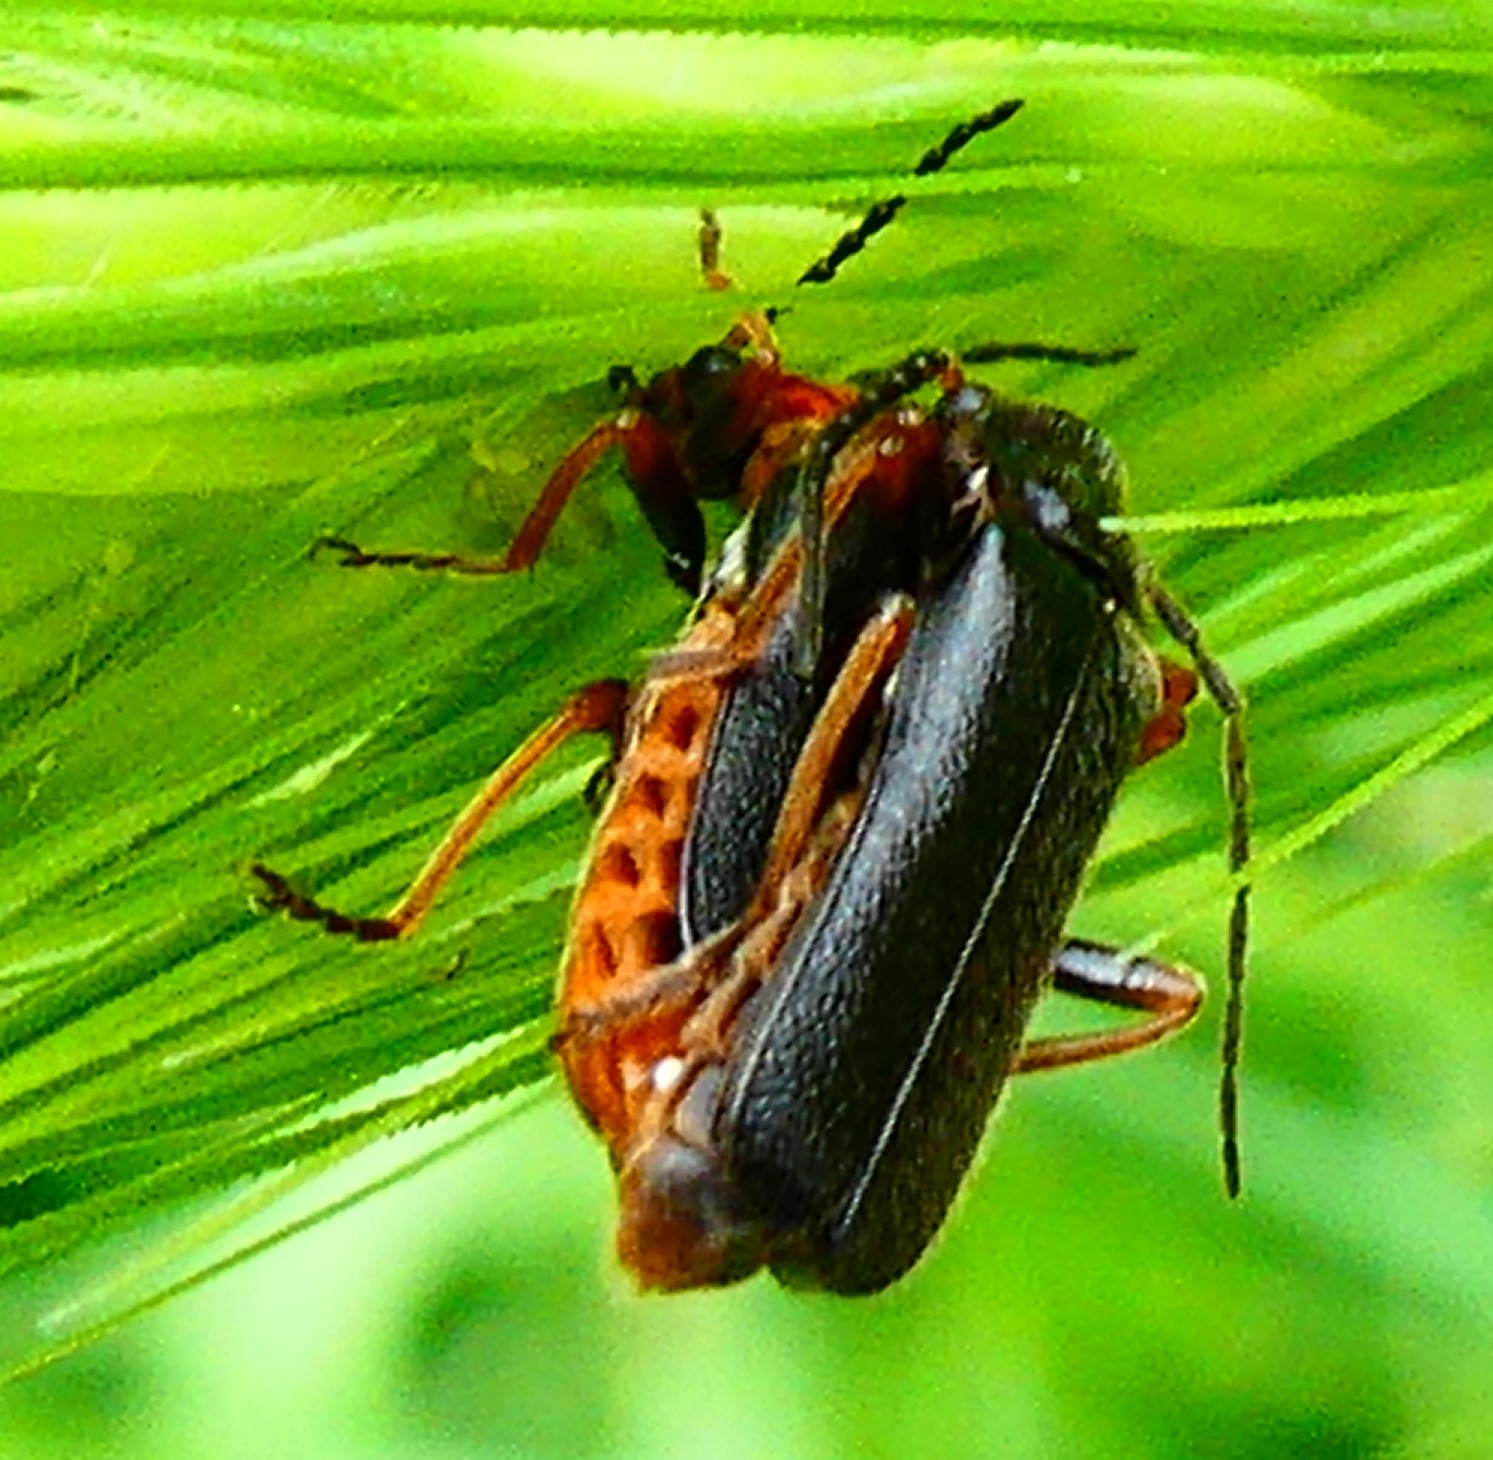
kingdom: Animalia
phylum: Arthropoda
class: Insecta
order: Coleoptera
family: Cantharidae
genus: Cantharis
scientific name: Cantharis flavilabris
